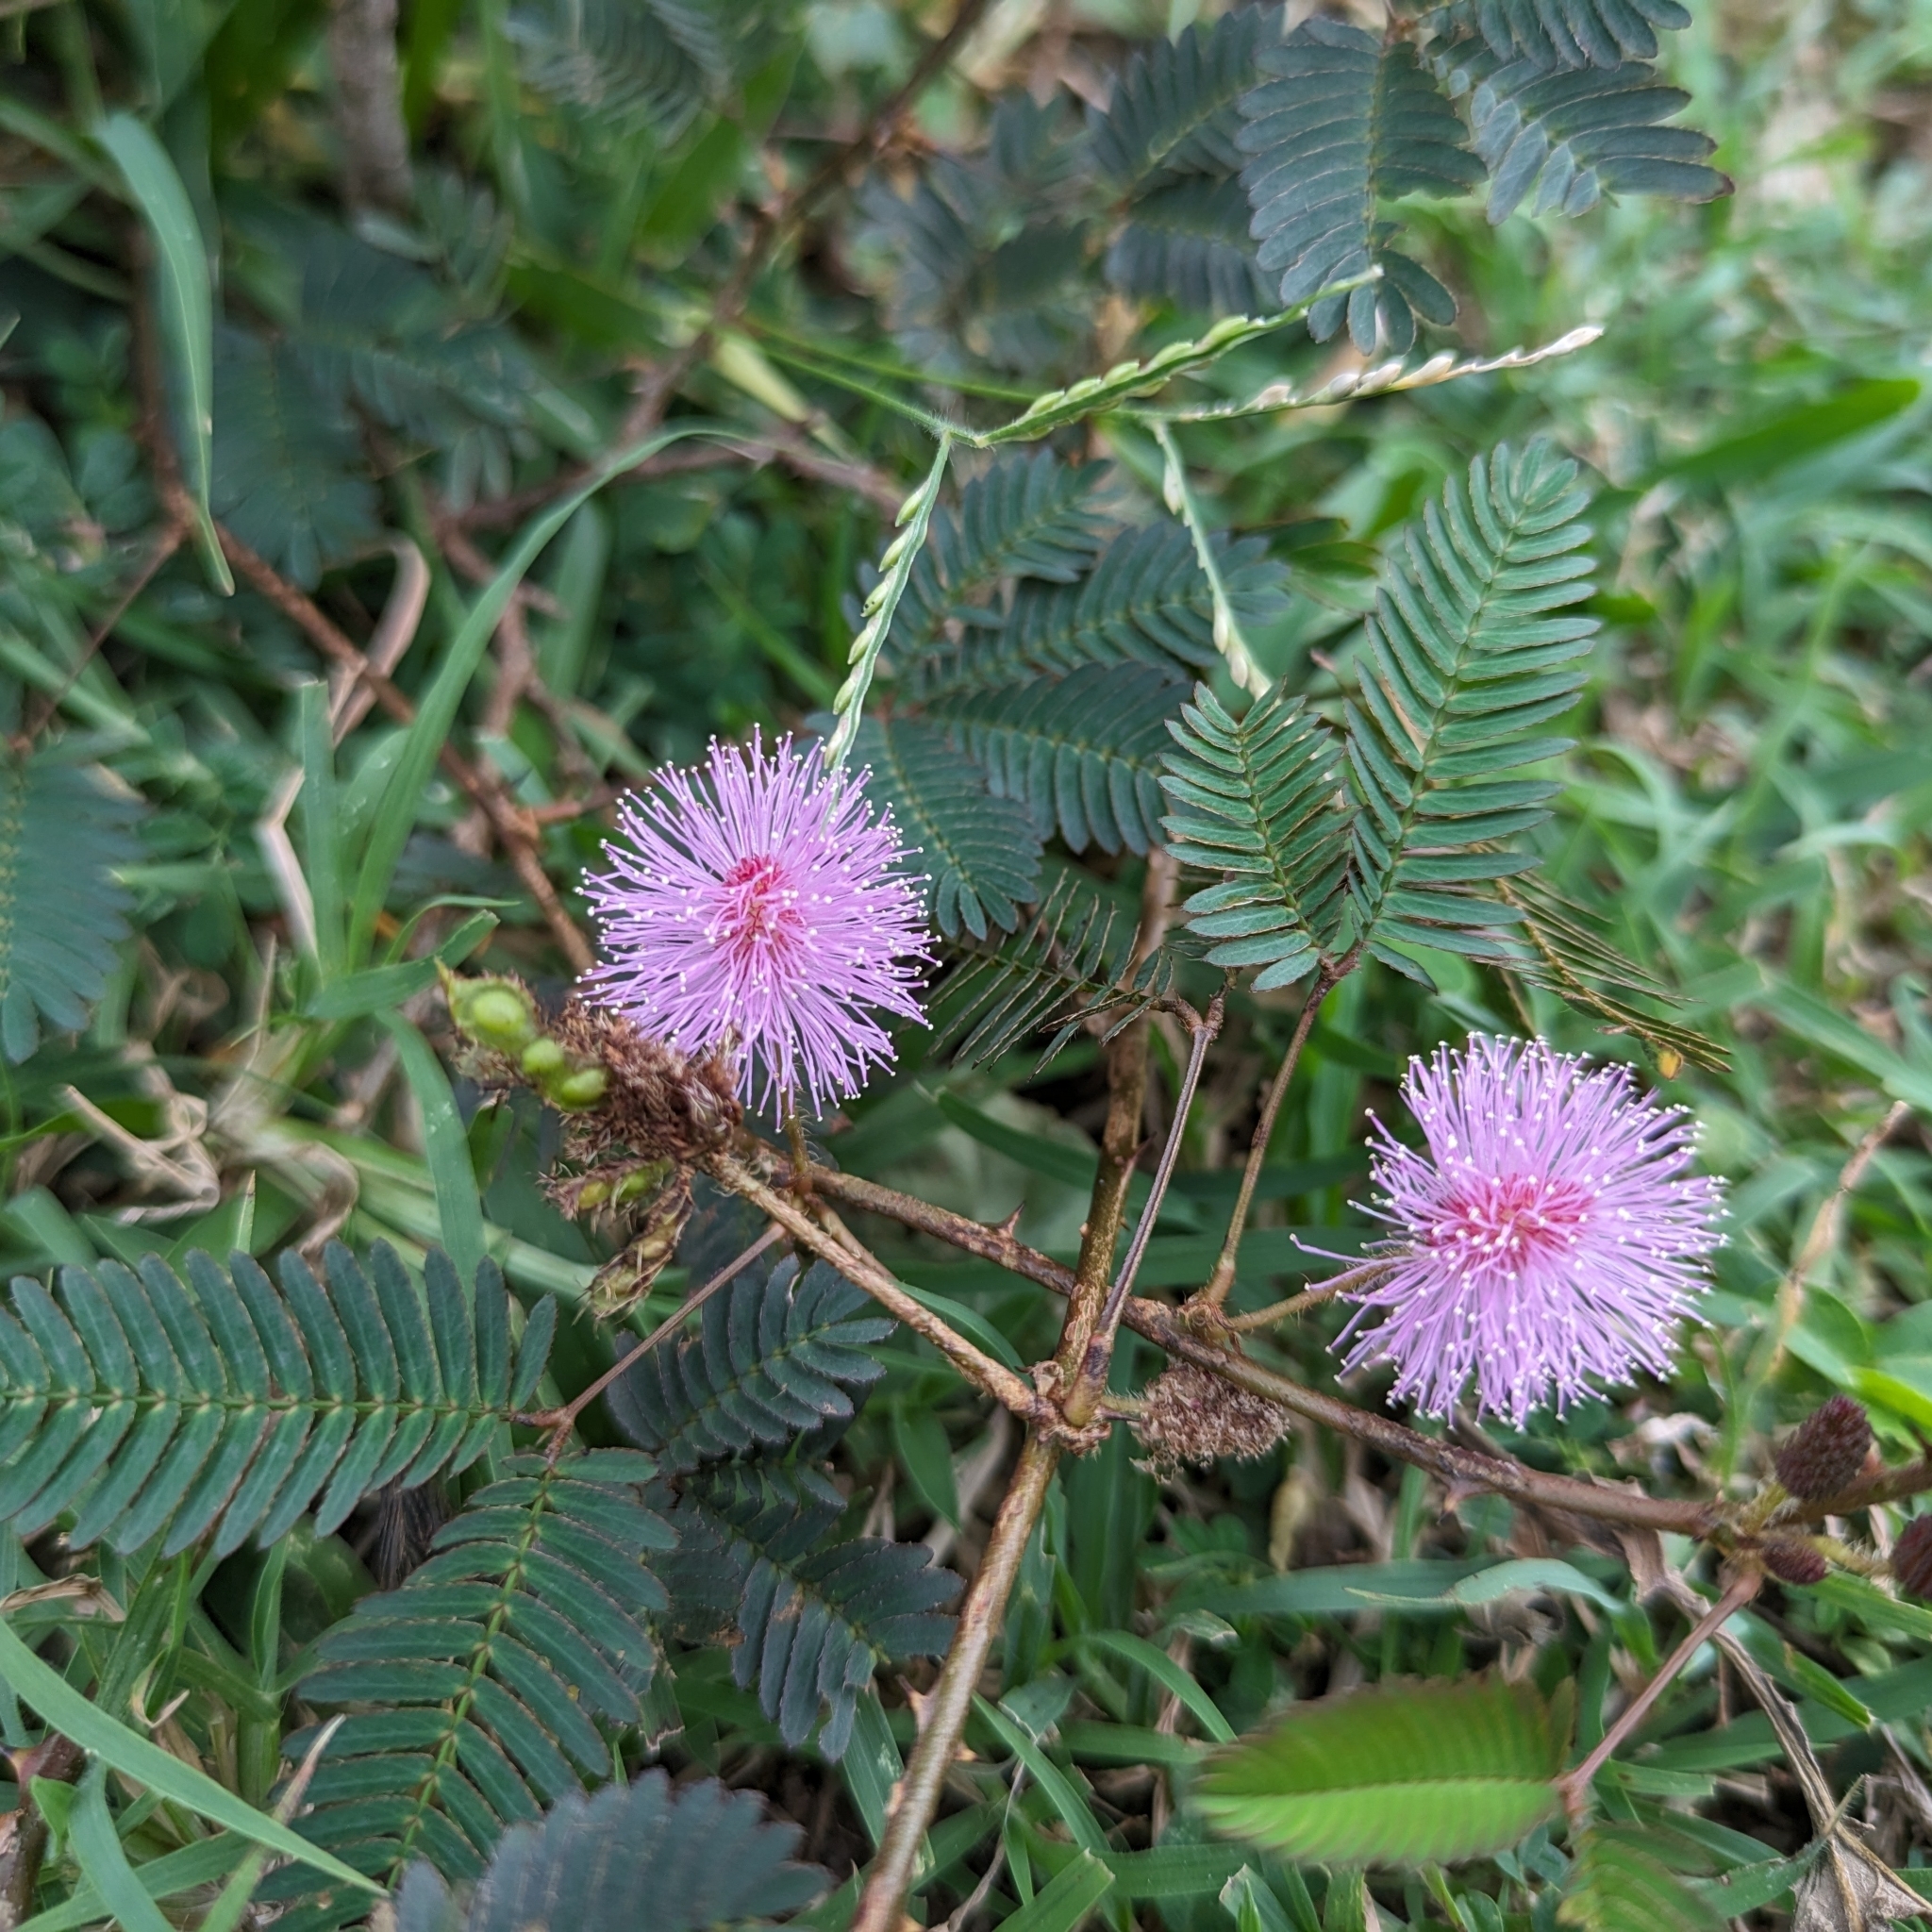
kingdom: Plantae
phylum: Tracheophyta
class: Magnoliopsida
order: Fabales
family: Fabaceae
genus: Mimosa
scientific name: Mimosa pudica
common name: Sensitive plant
